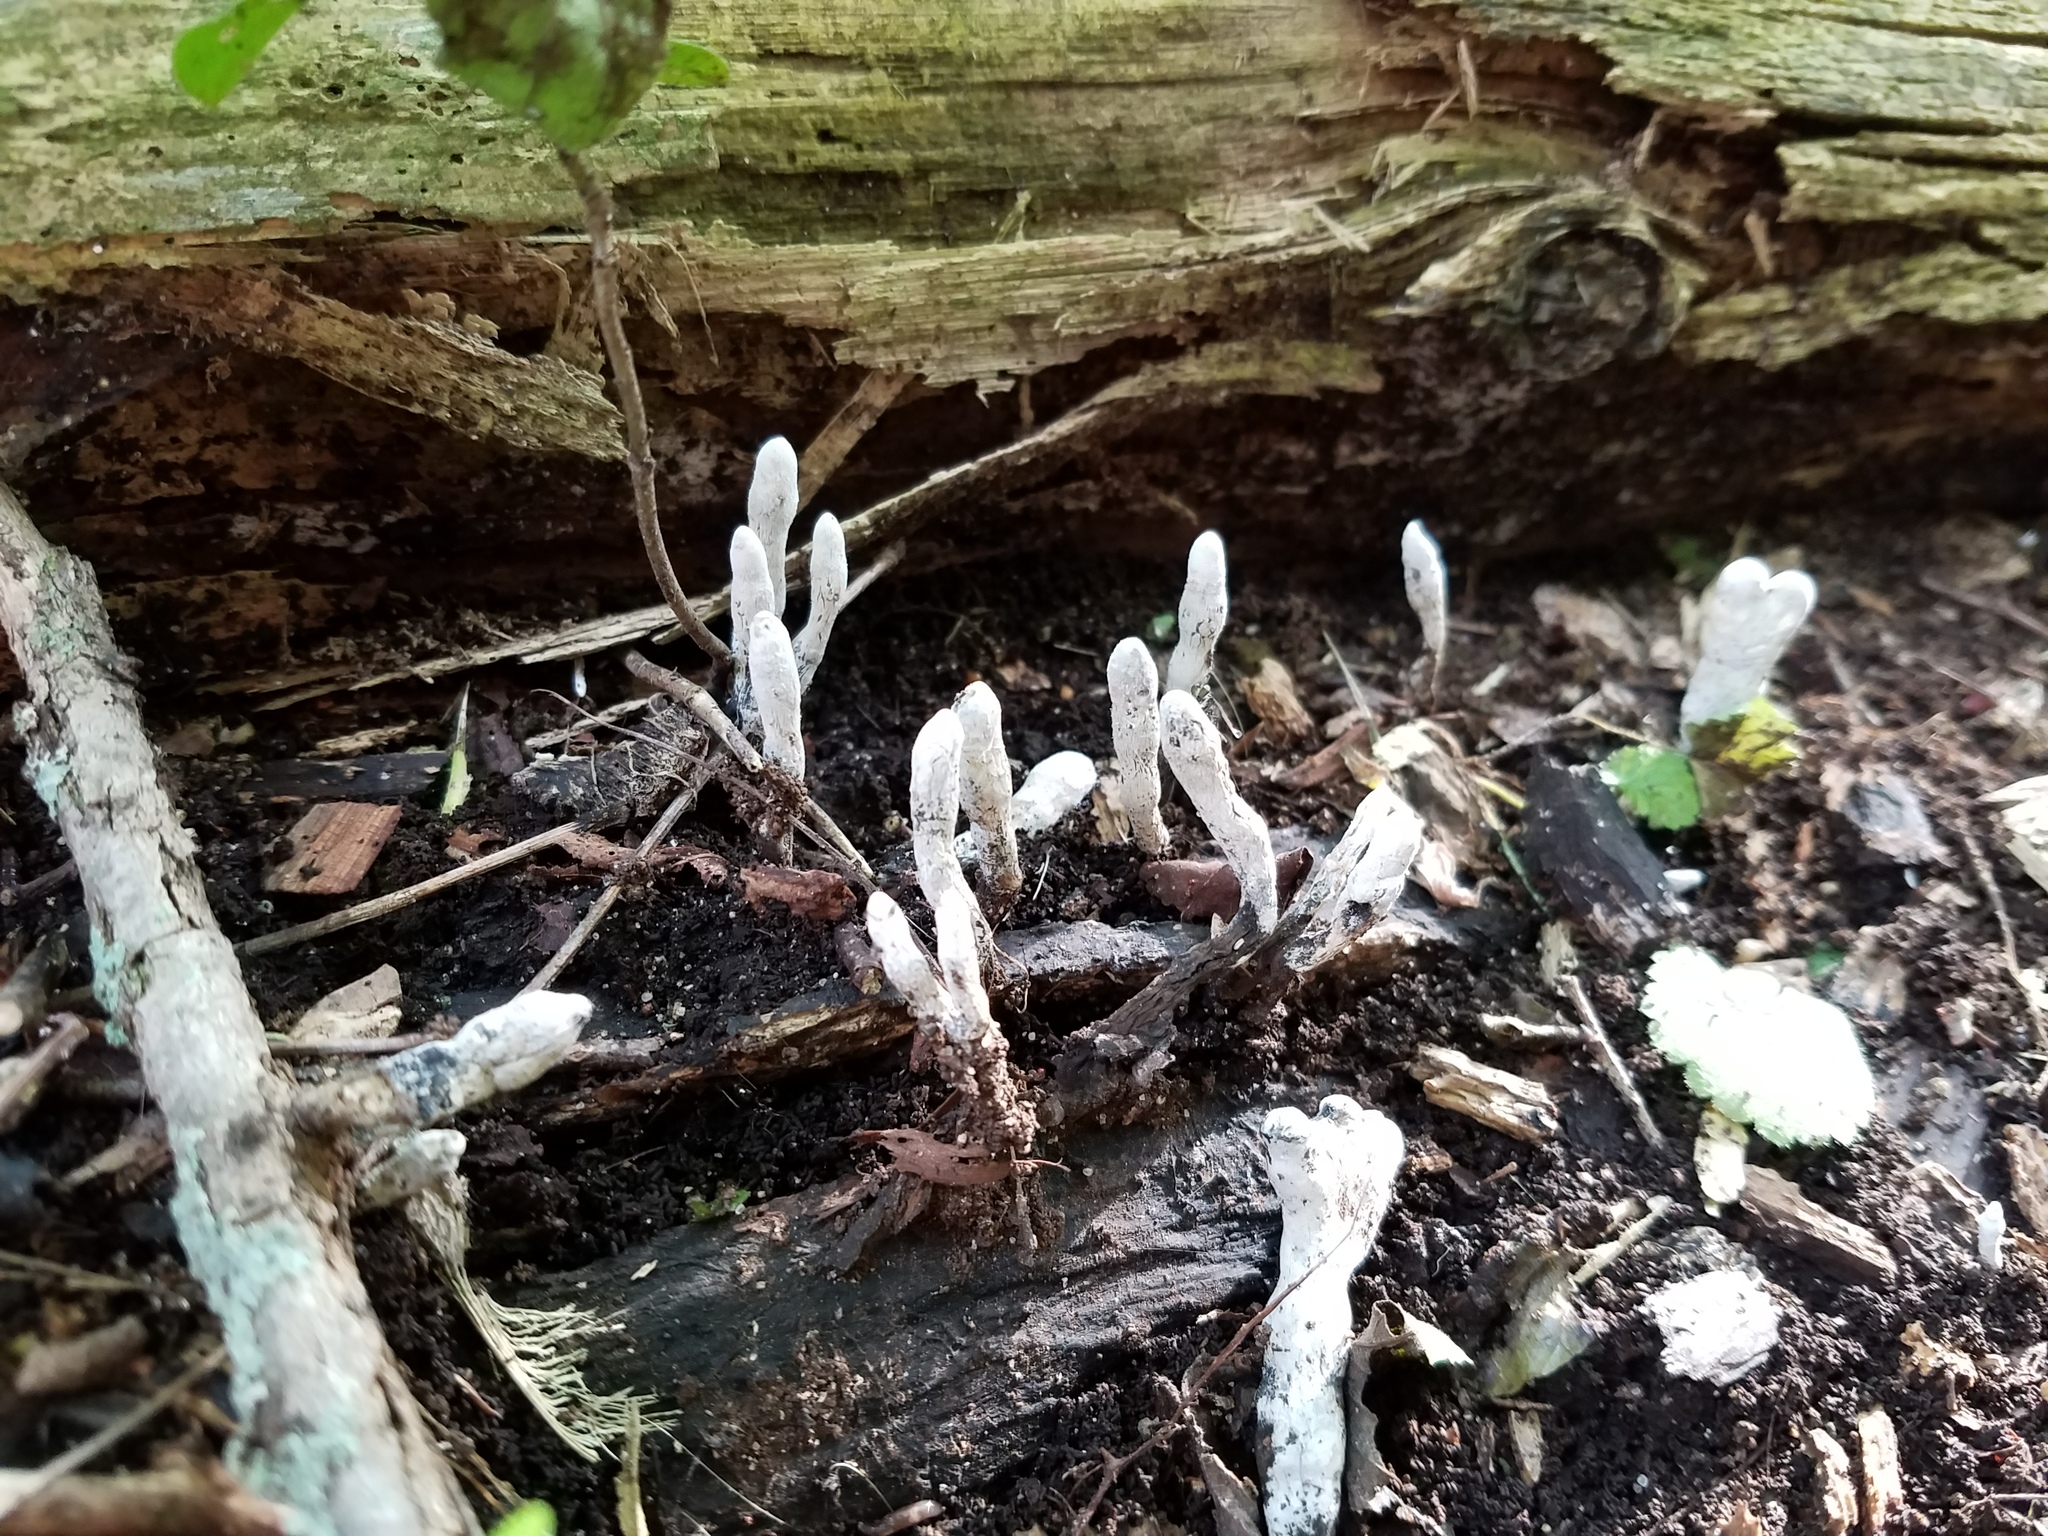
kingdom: Fungi
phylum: Ascomycota
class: Sordariomycetes
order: Xylariales
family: Xylariaceae
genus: Xylaria
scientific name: Xylaria hypoxylon
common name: Candle-snuff fungus
